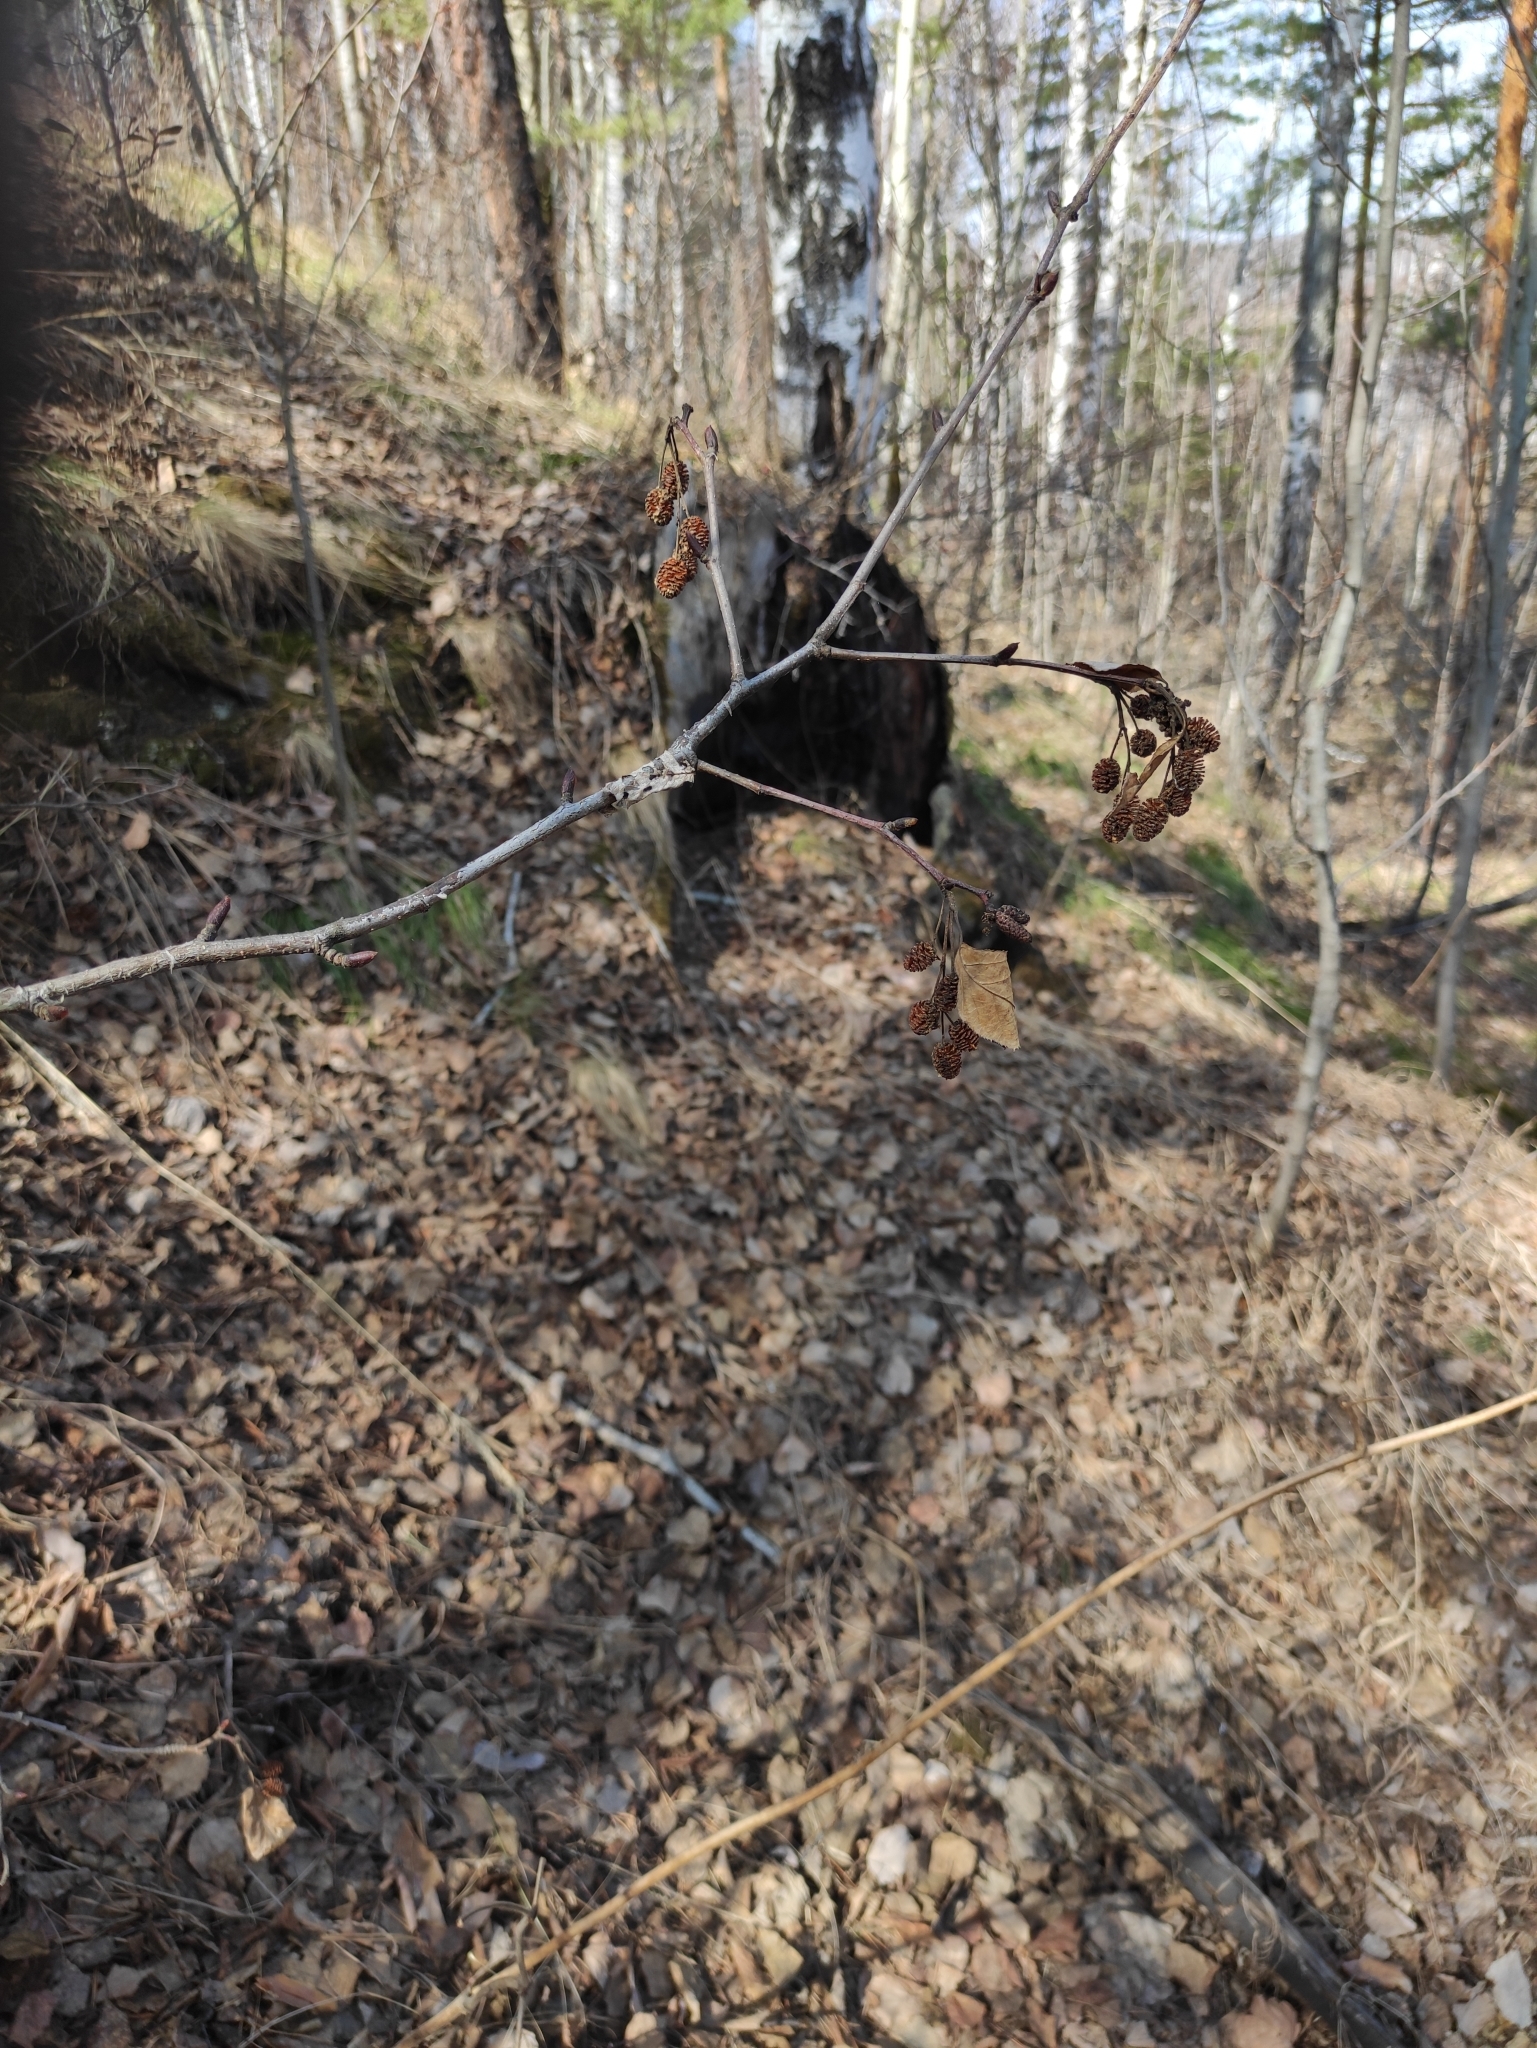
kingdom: Plantae
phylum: Tracheophyta
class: Magnoliopsida
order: Fagales
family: Betulaceae
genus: Alnus
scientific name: Alnus alnobetula
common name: Green alder
